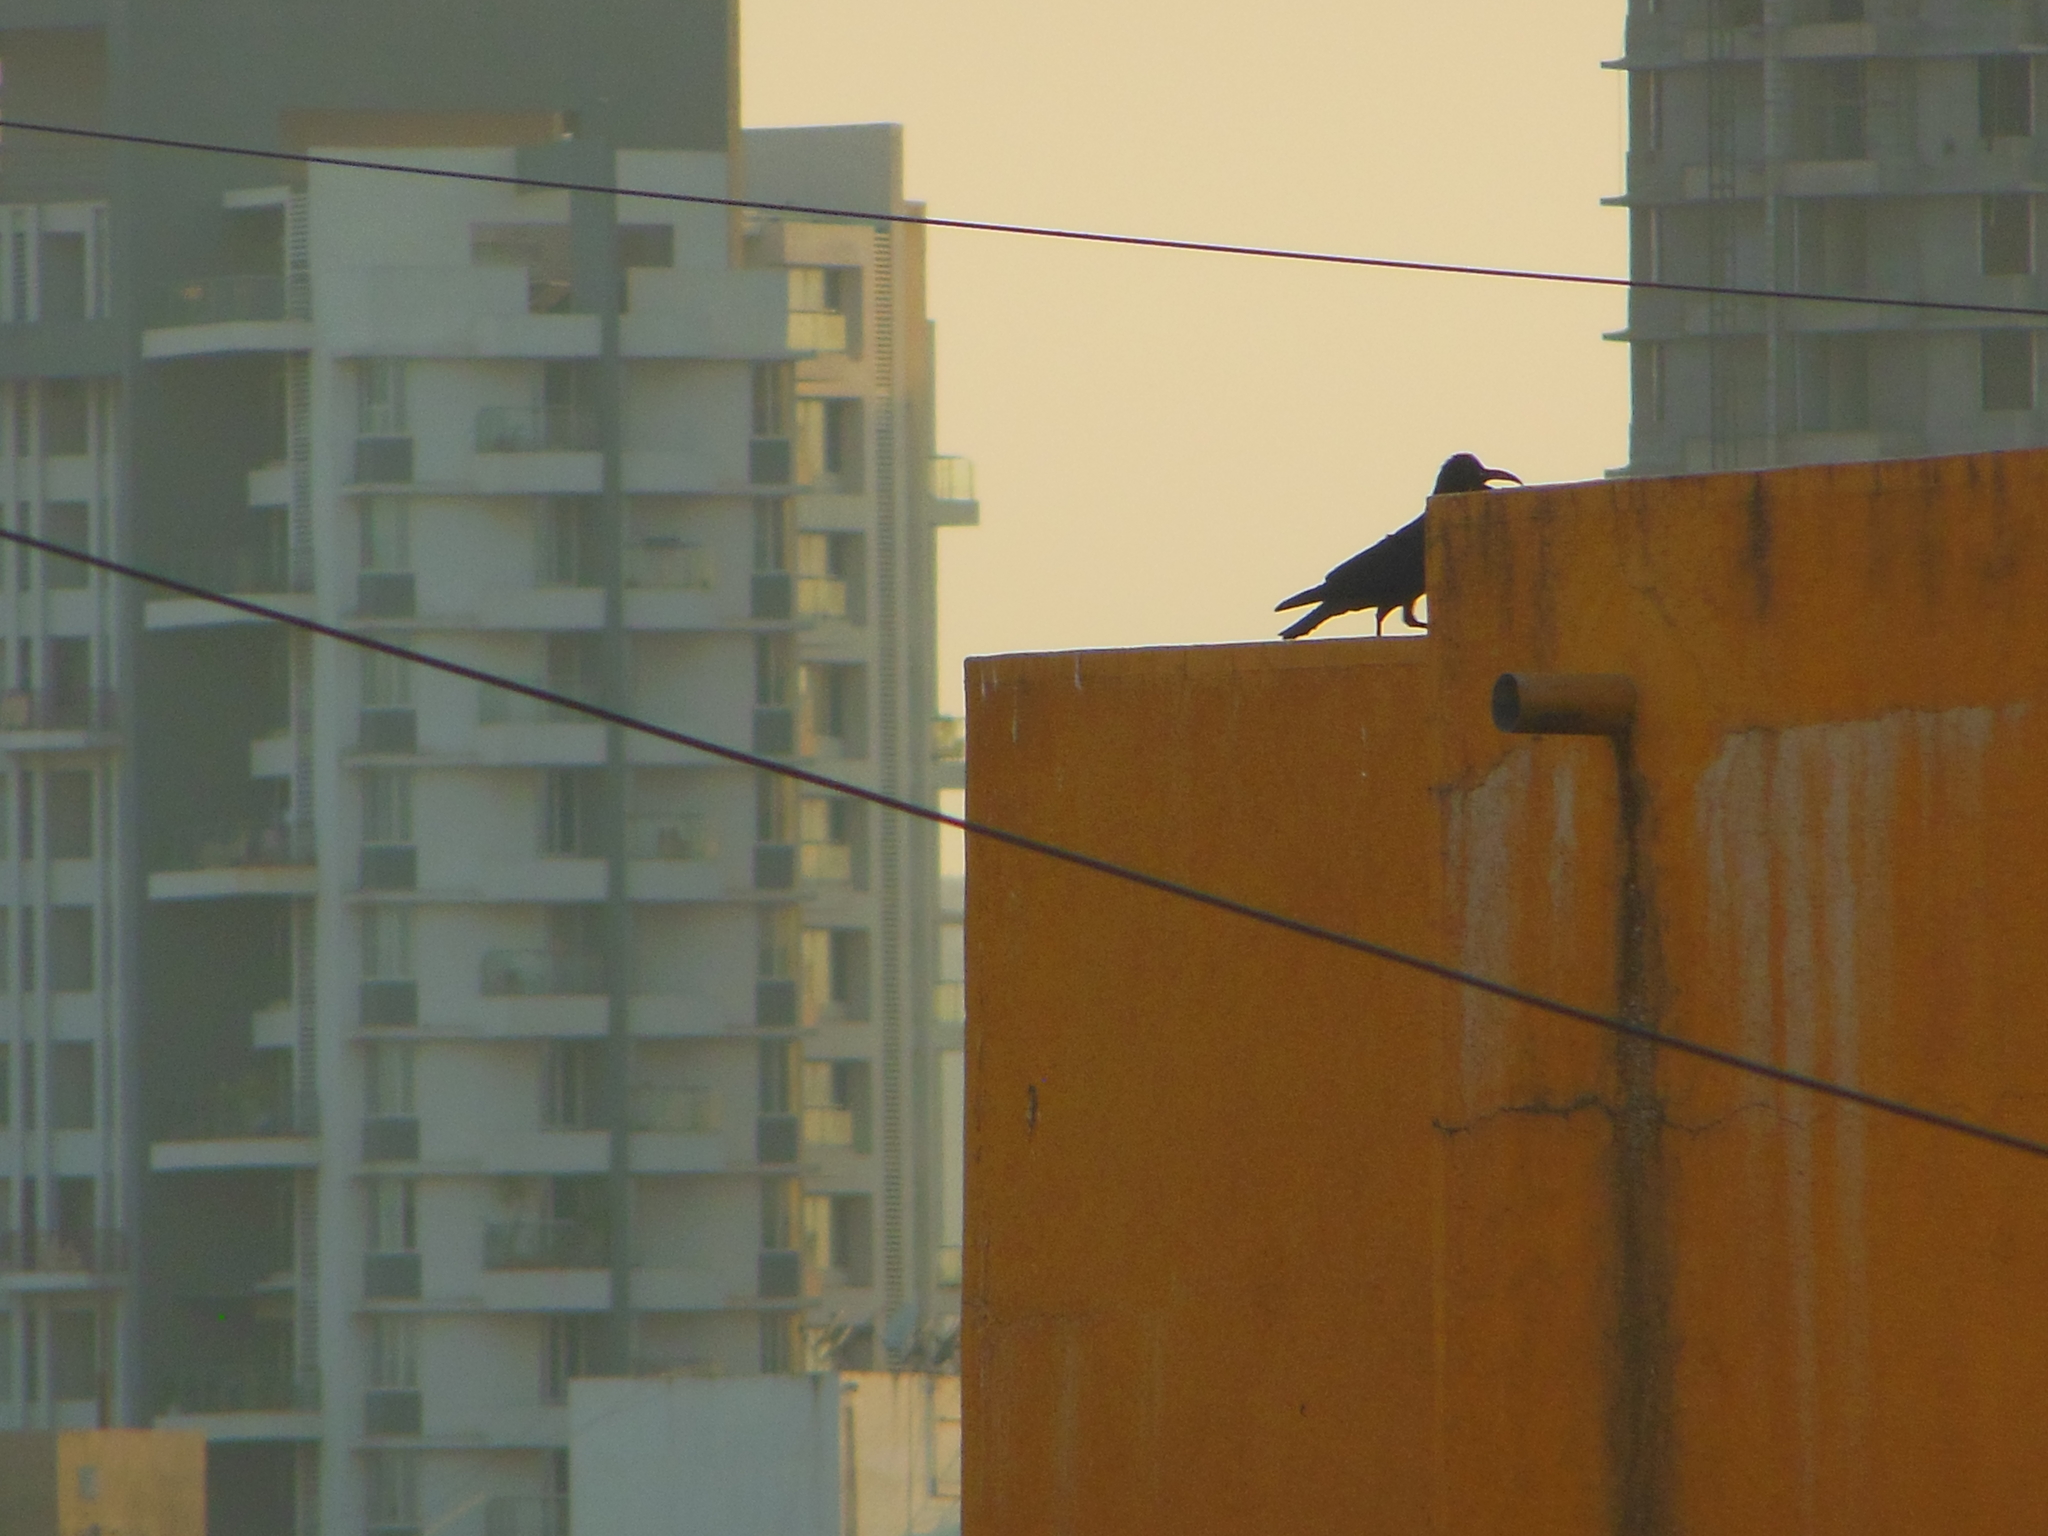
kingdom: Animalia
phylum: Chordata
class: Aves
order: Passeriformes
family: Corvidae
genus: Corvus
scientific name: Corvus macrorhynchos
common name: Large-billed crow
